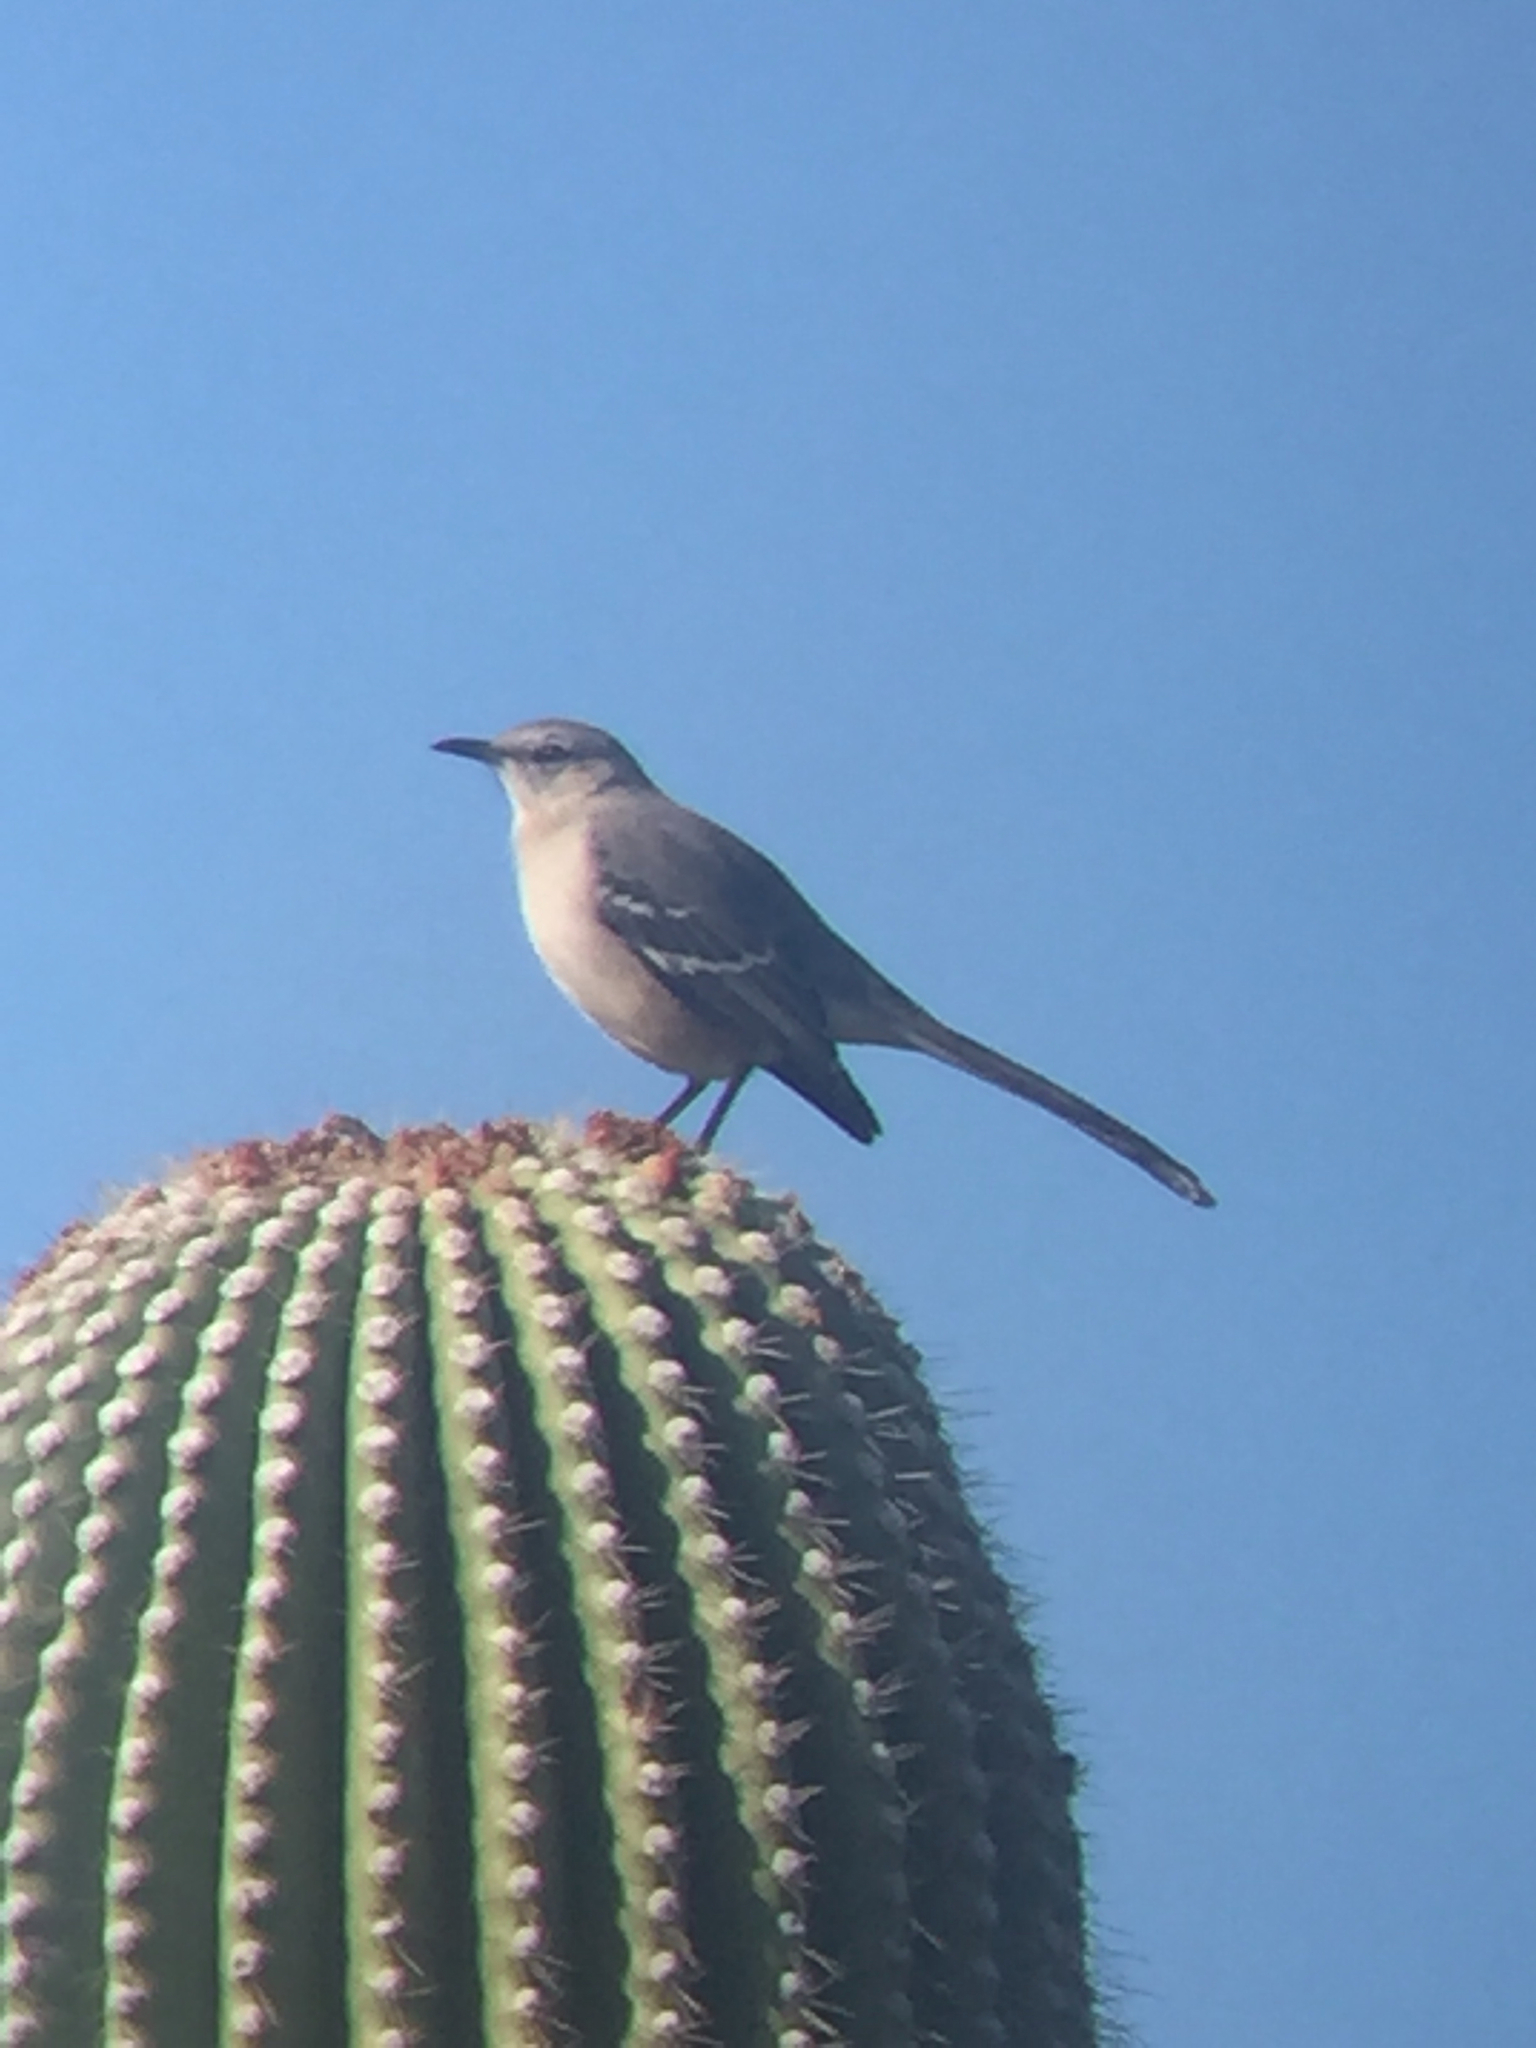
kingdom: Animalia
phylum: Chordata
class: Aves
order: Passeriformes
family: Mimidae
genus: Mimus
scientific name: Mimus polyglottos
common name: Northern mockingbird
